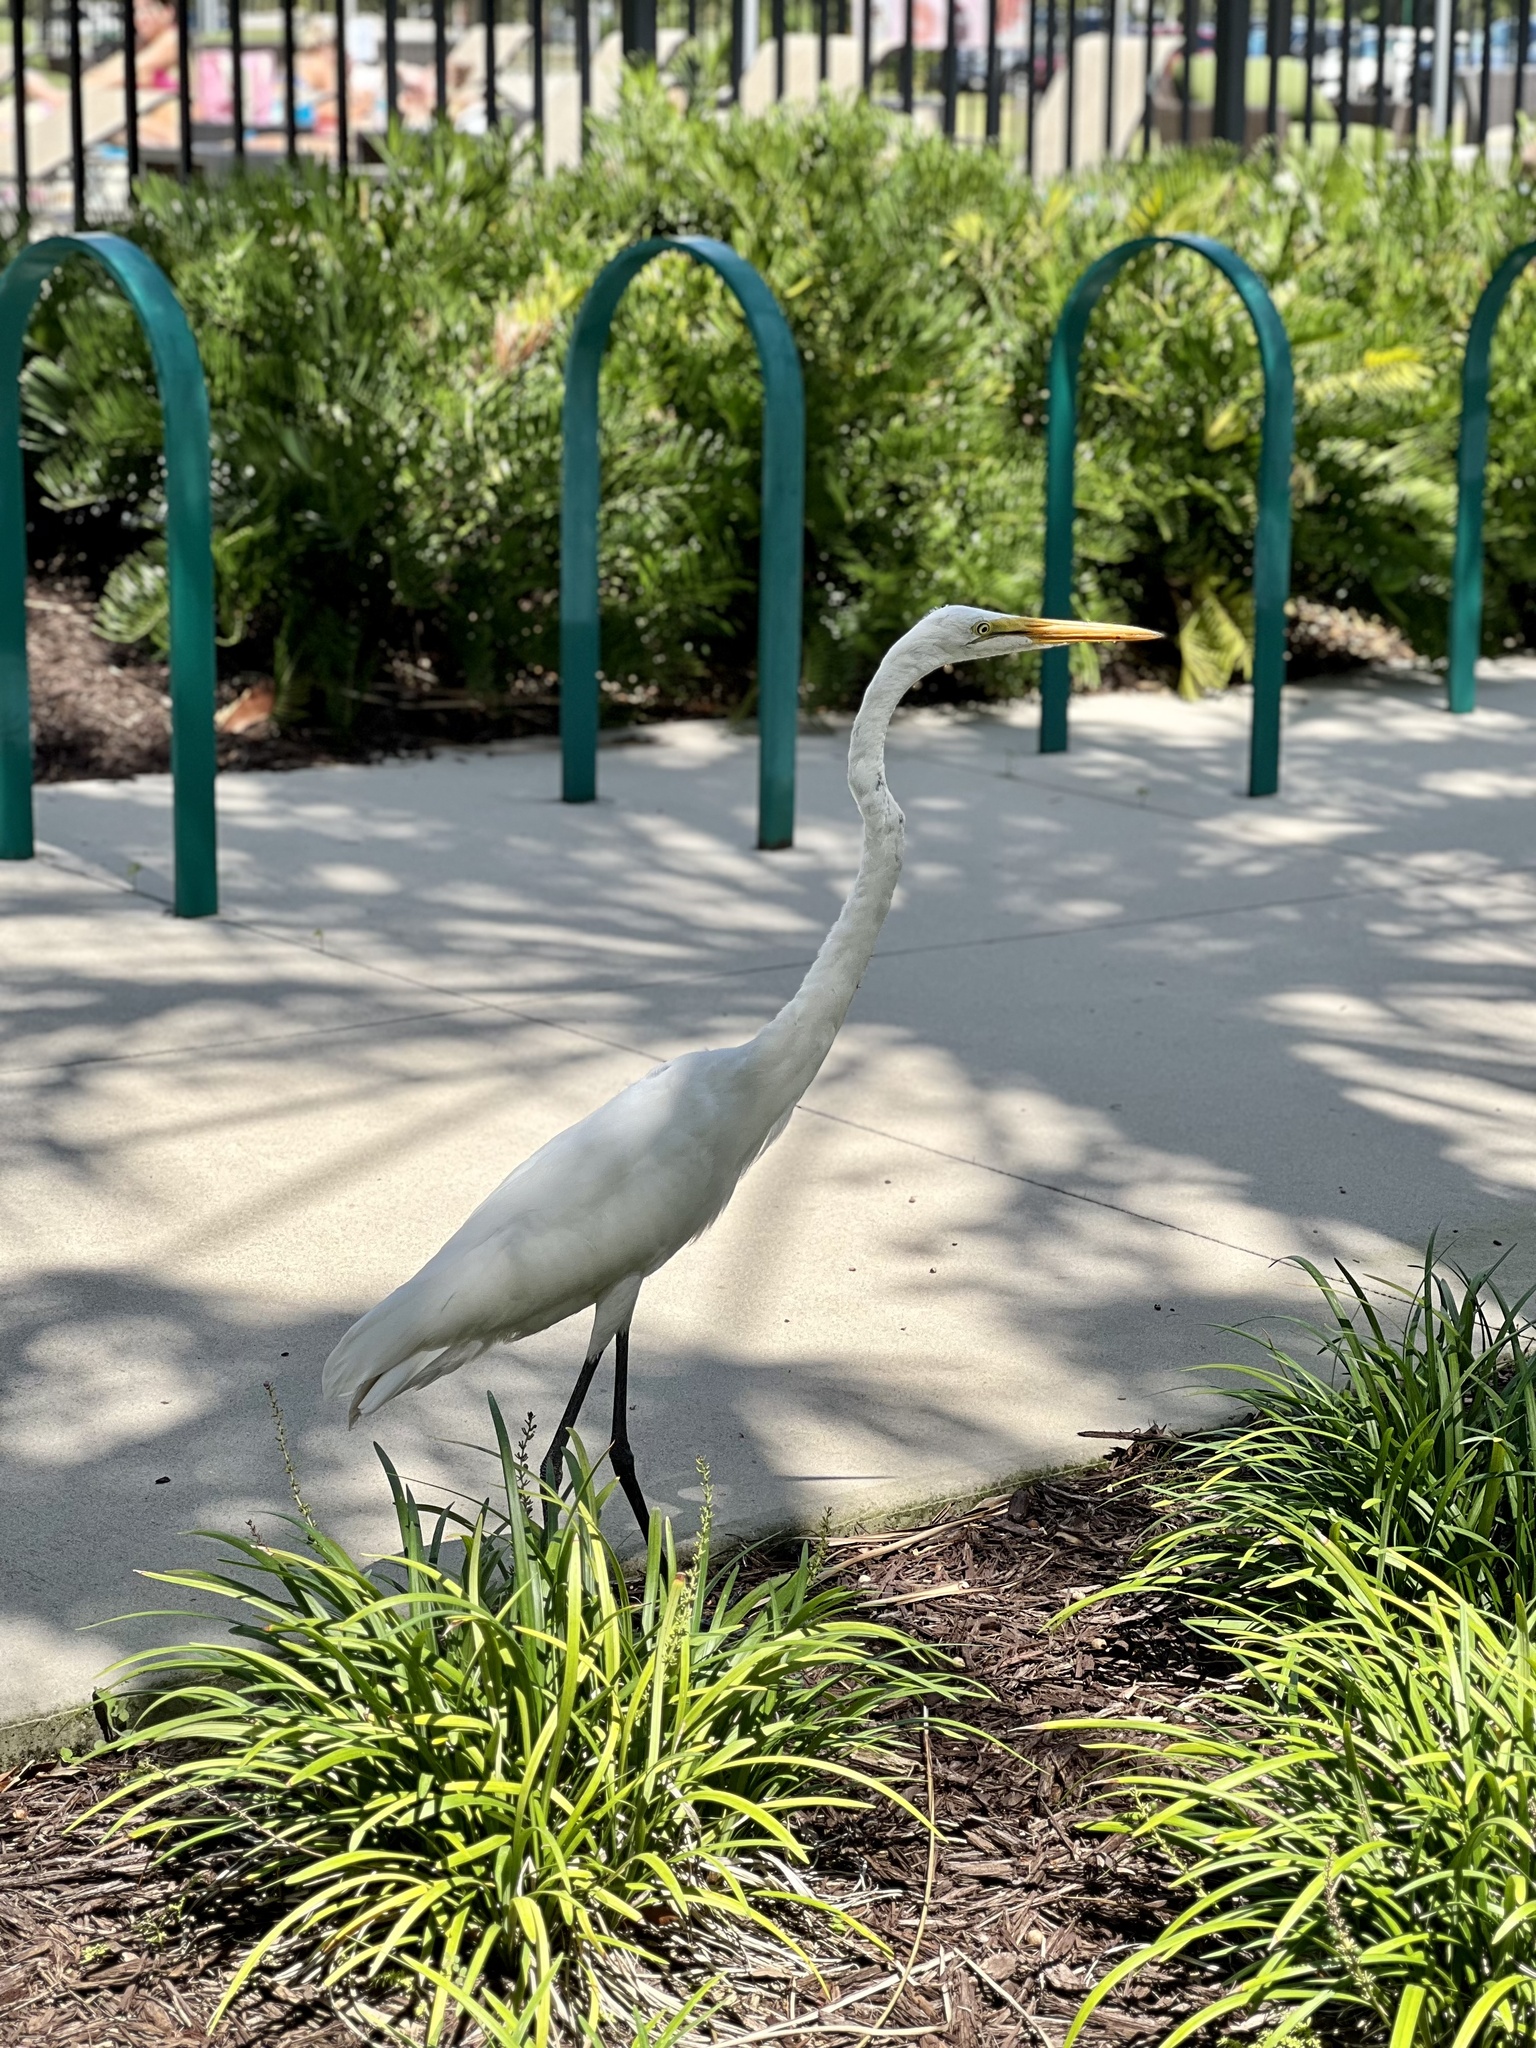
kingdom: Animalia
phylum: Chordata
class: Aves
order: Pelecaniformes
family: Ardeidae
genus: Ardea
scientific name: Ardea alba
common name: Great egret
